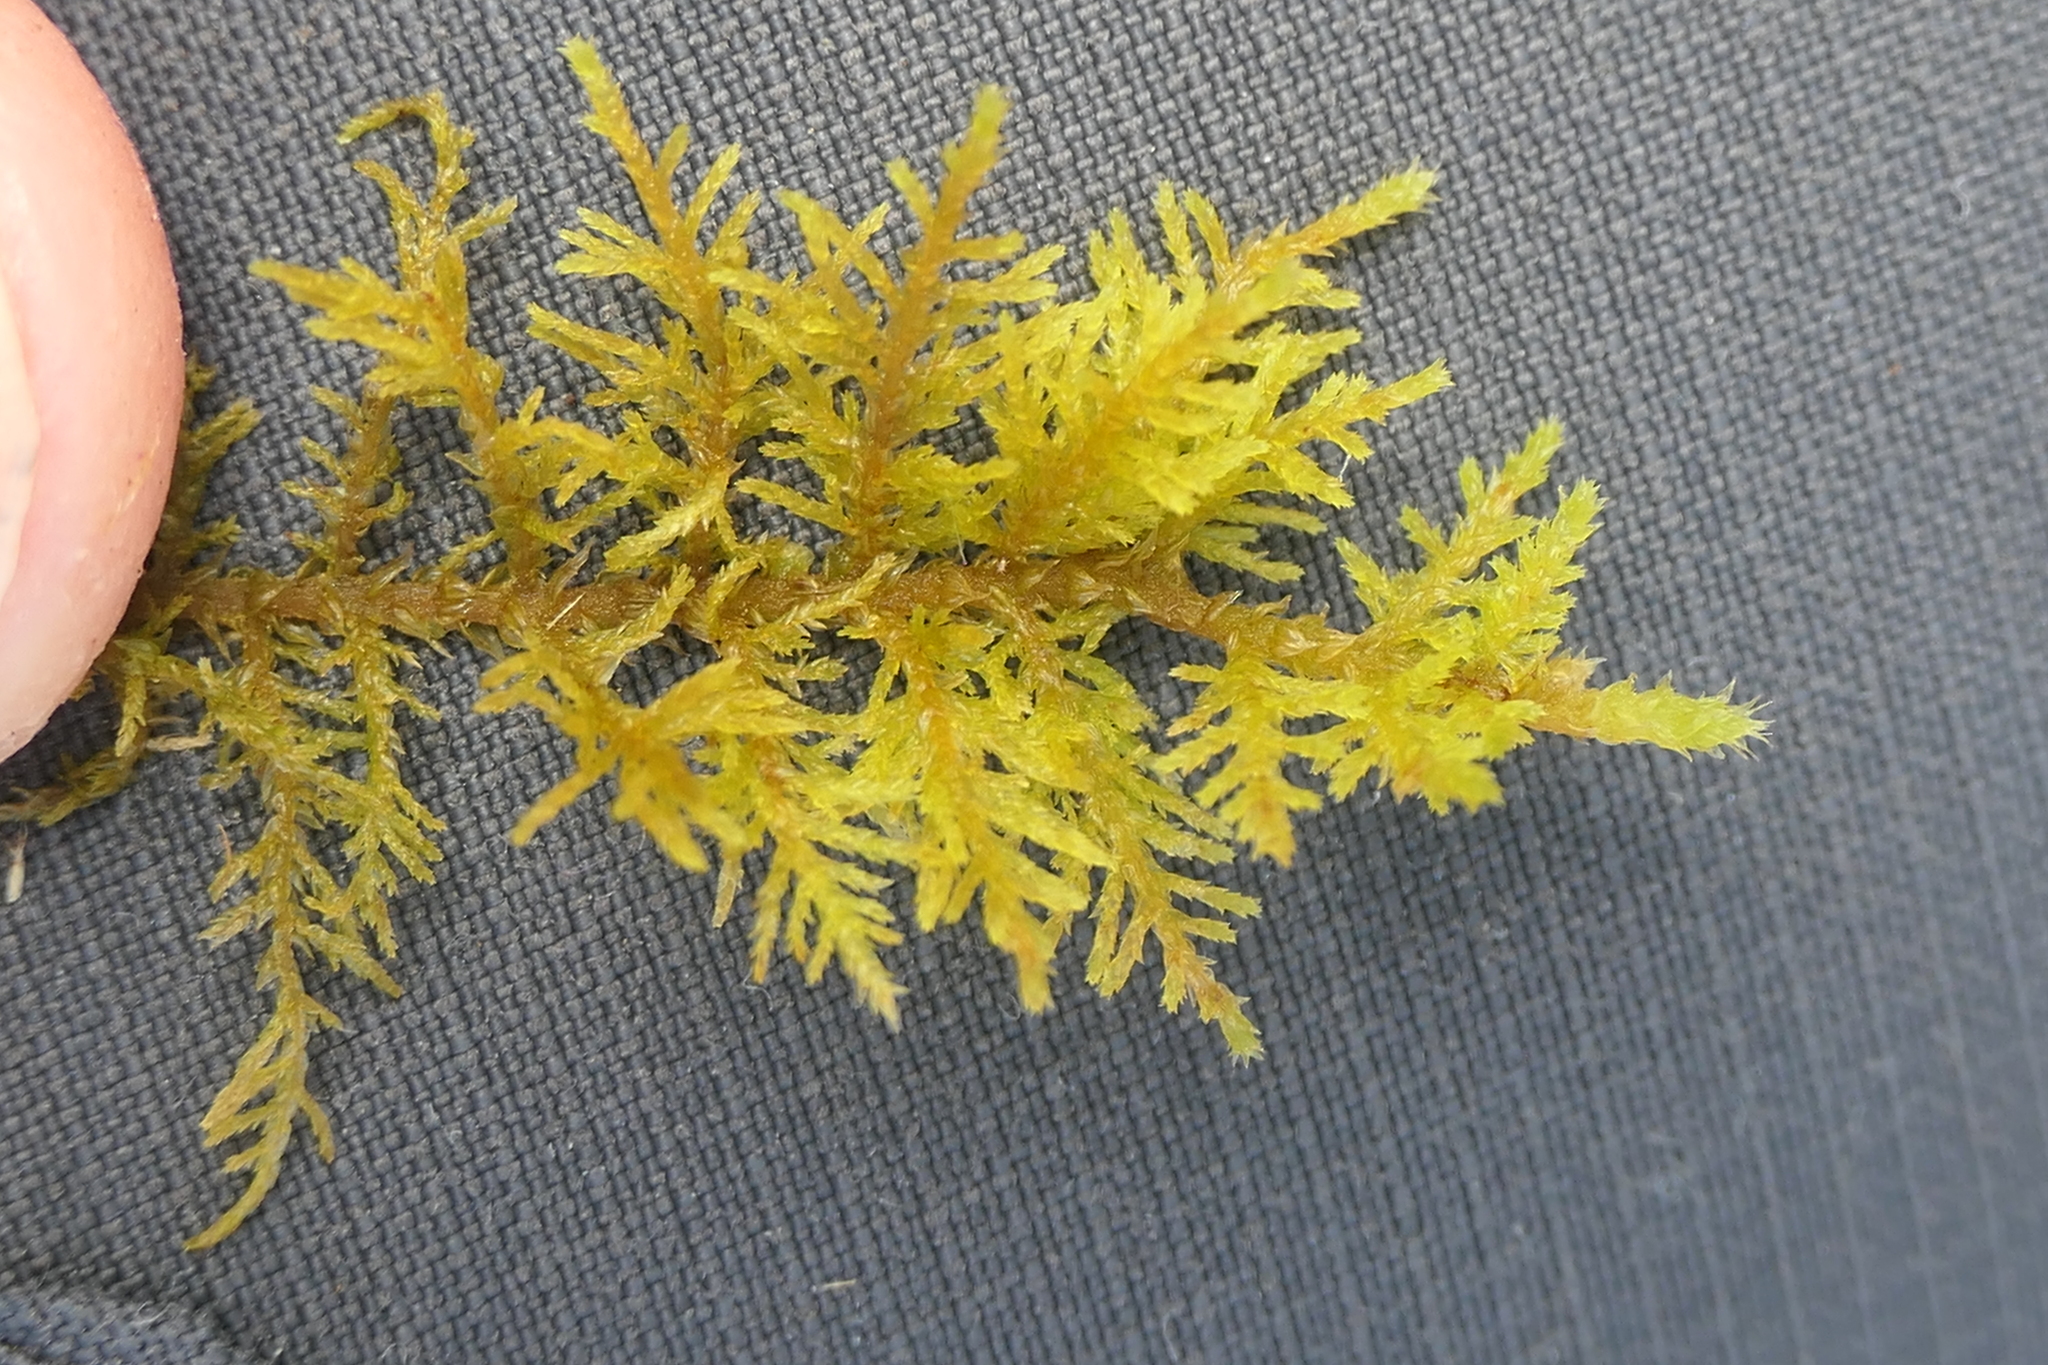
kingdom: Plantae
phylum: Bryophyta
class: Bryopsida
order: Hypnales
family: Thuidiaceae
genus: Thuidium
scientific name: Thuidium tamariscinum
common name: Common tamarisk-moss
